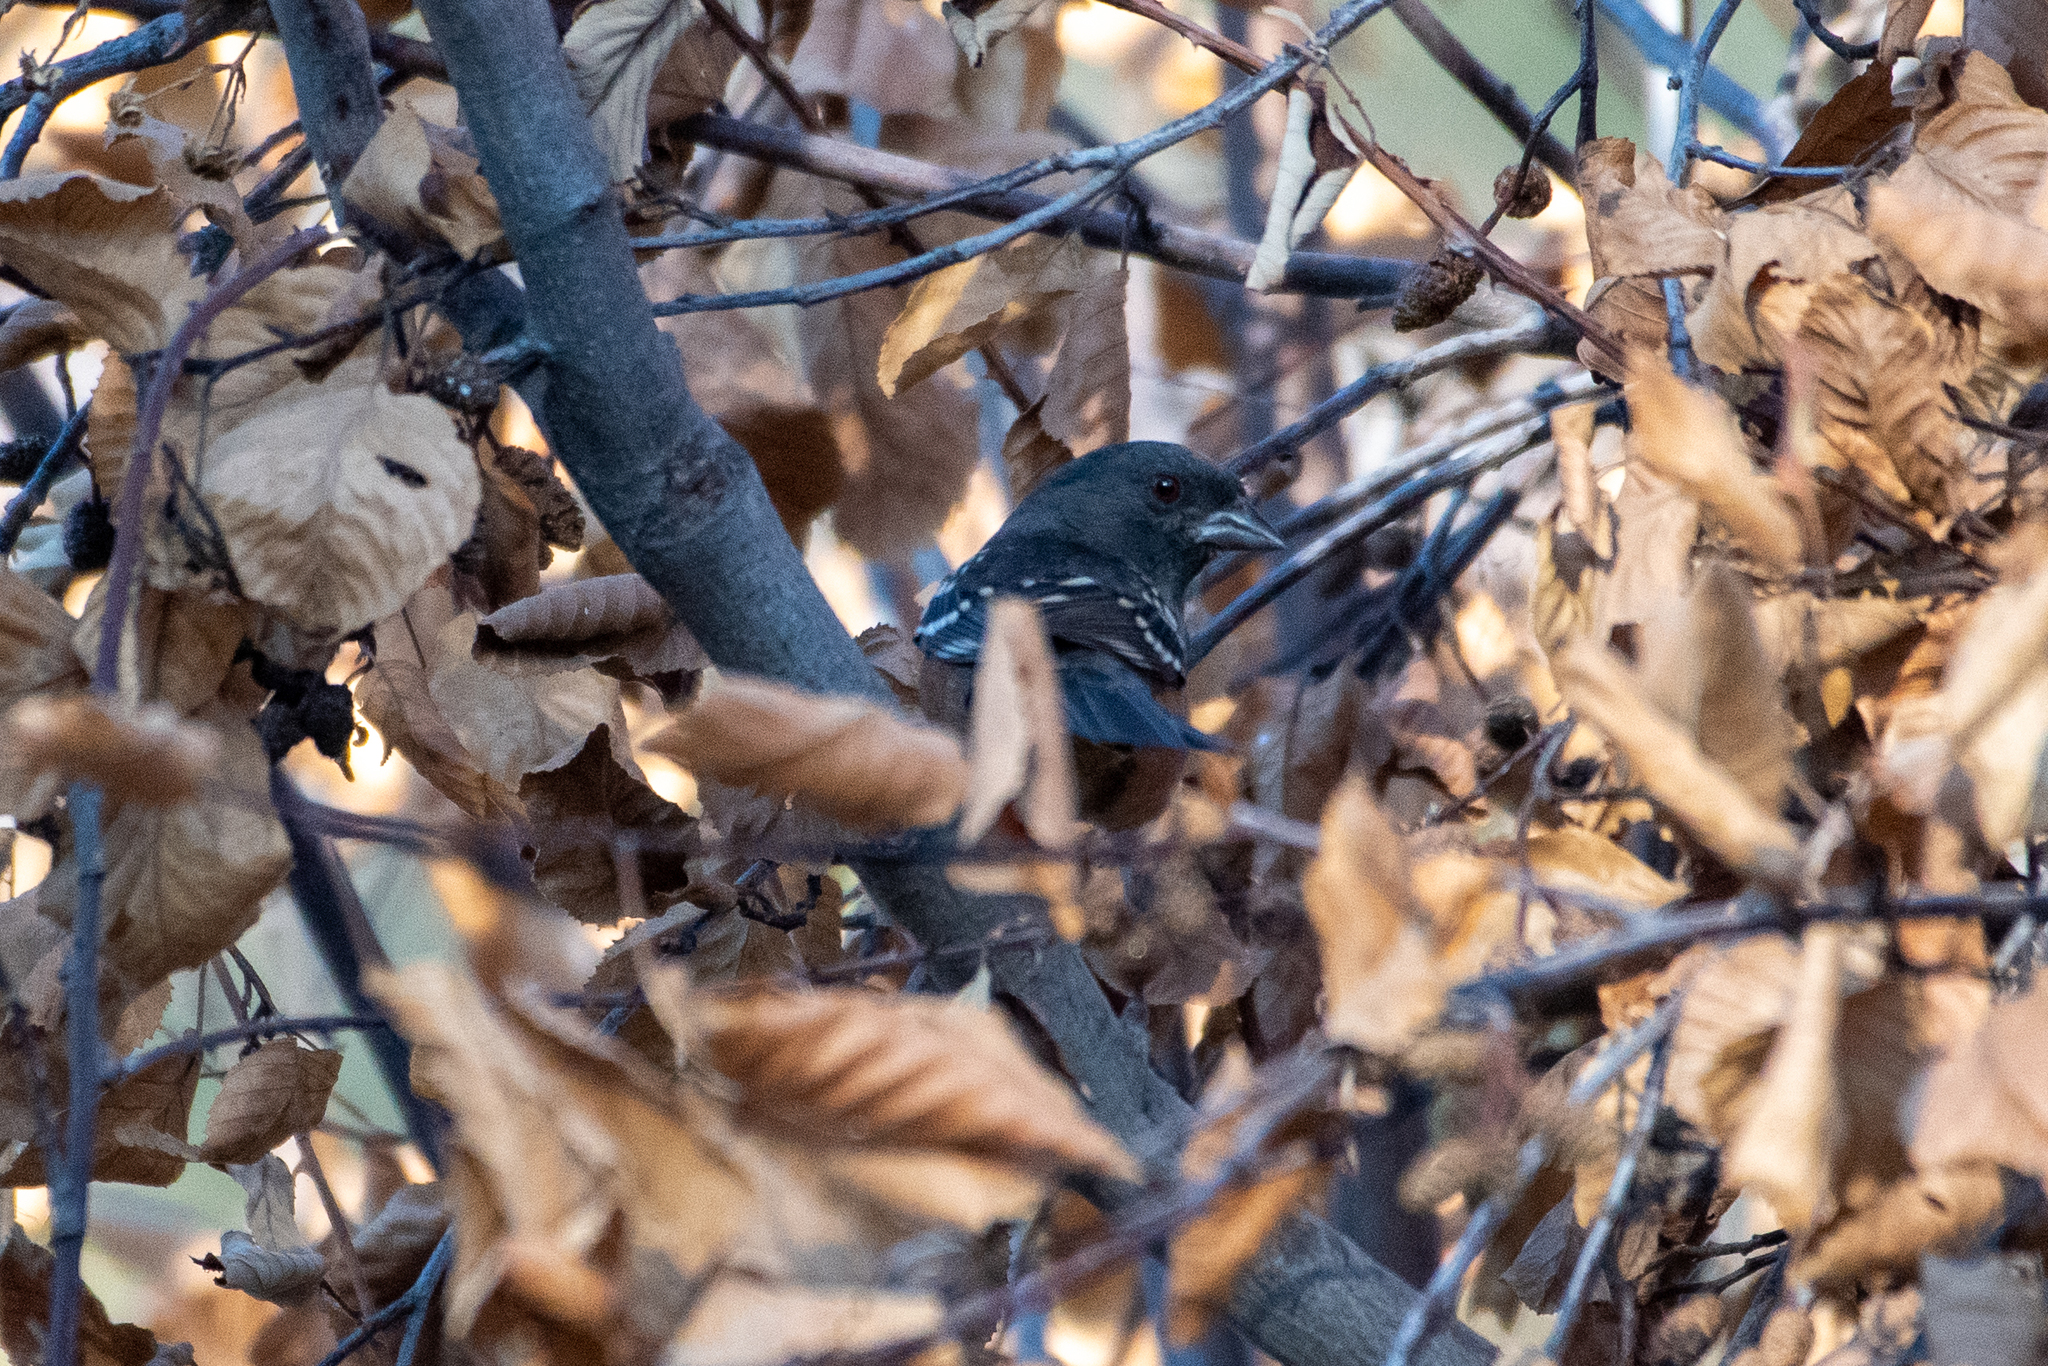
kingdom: Animalia
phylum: Chordata
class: Aves
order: Passeriformes
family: Passerellidae
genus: Pipilo
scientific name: Pipilo maculatus
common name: Spotted towhee
